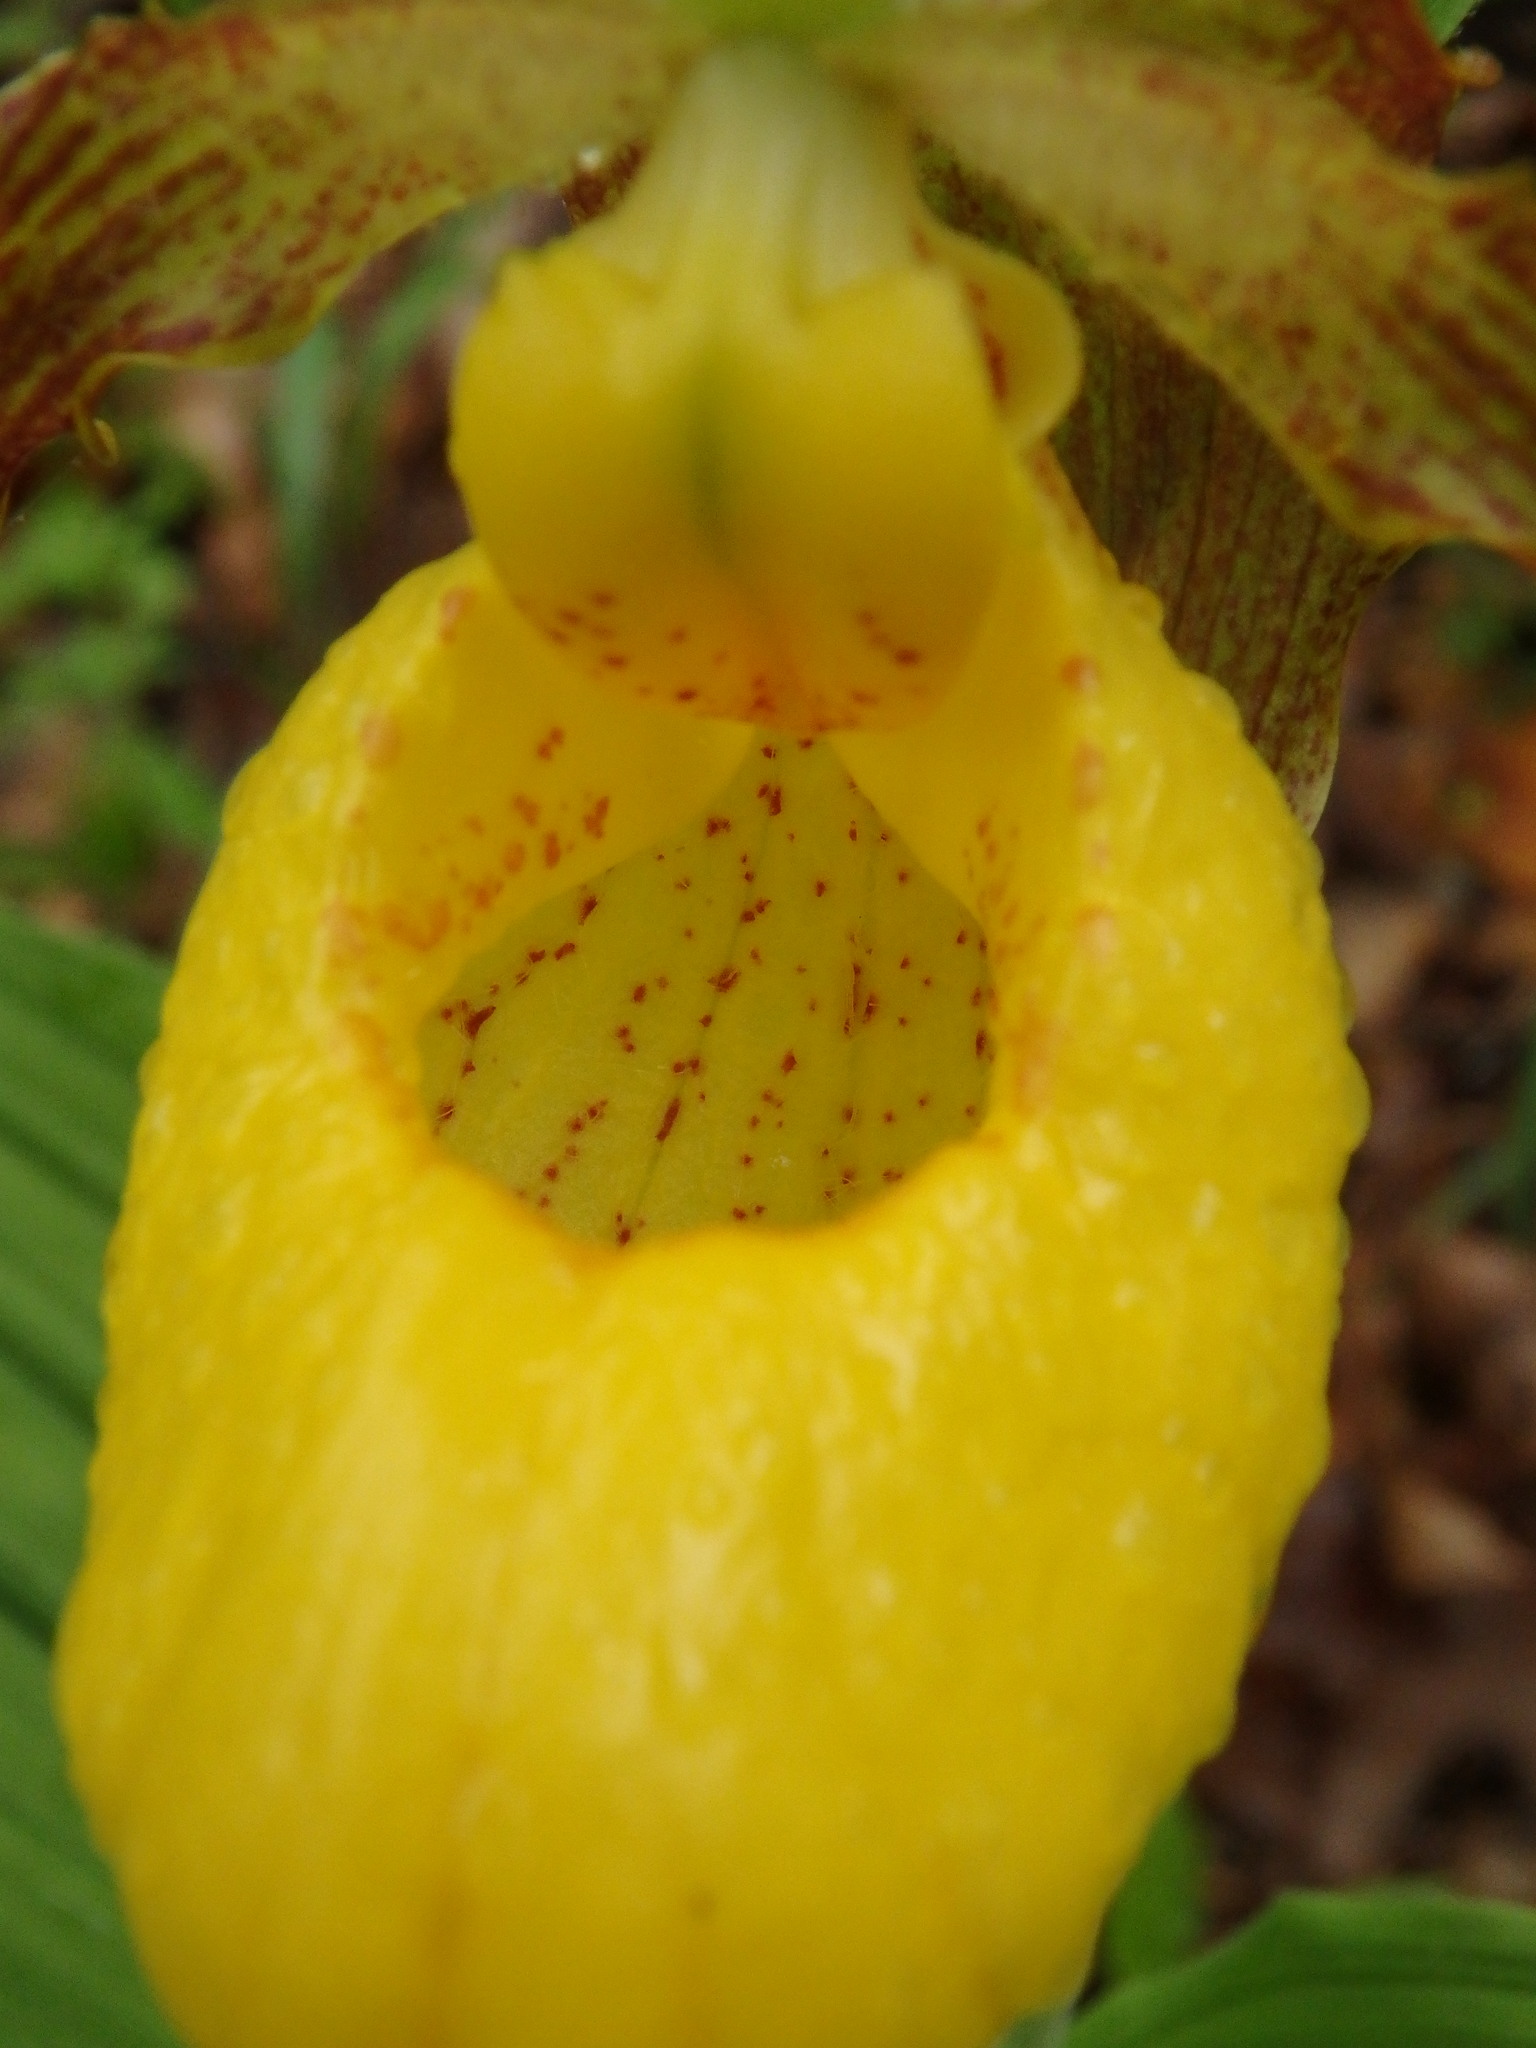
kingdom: Plantae
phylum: Tracheophyta
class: Liliopsida
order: Asparagales
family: Orchidaceae
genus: Cypripedium
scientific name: Cypripedium parviflorum
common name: American yellow lady's-slipper
